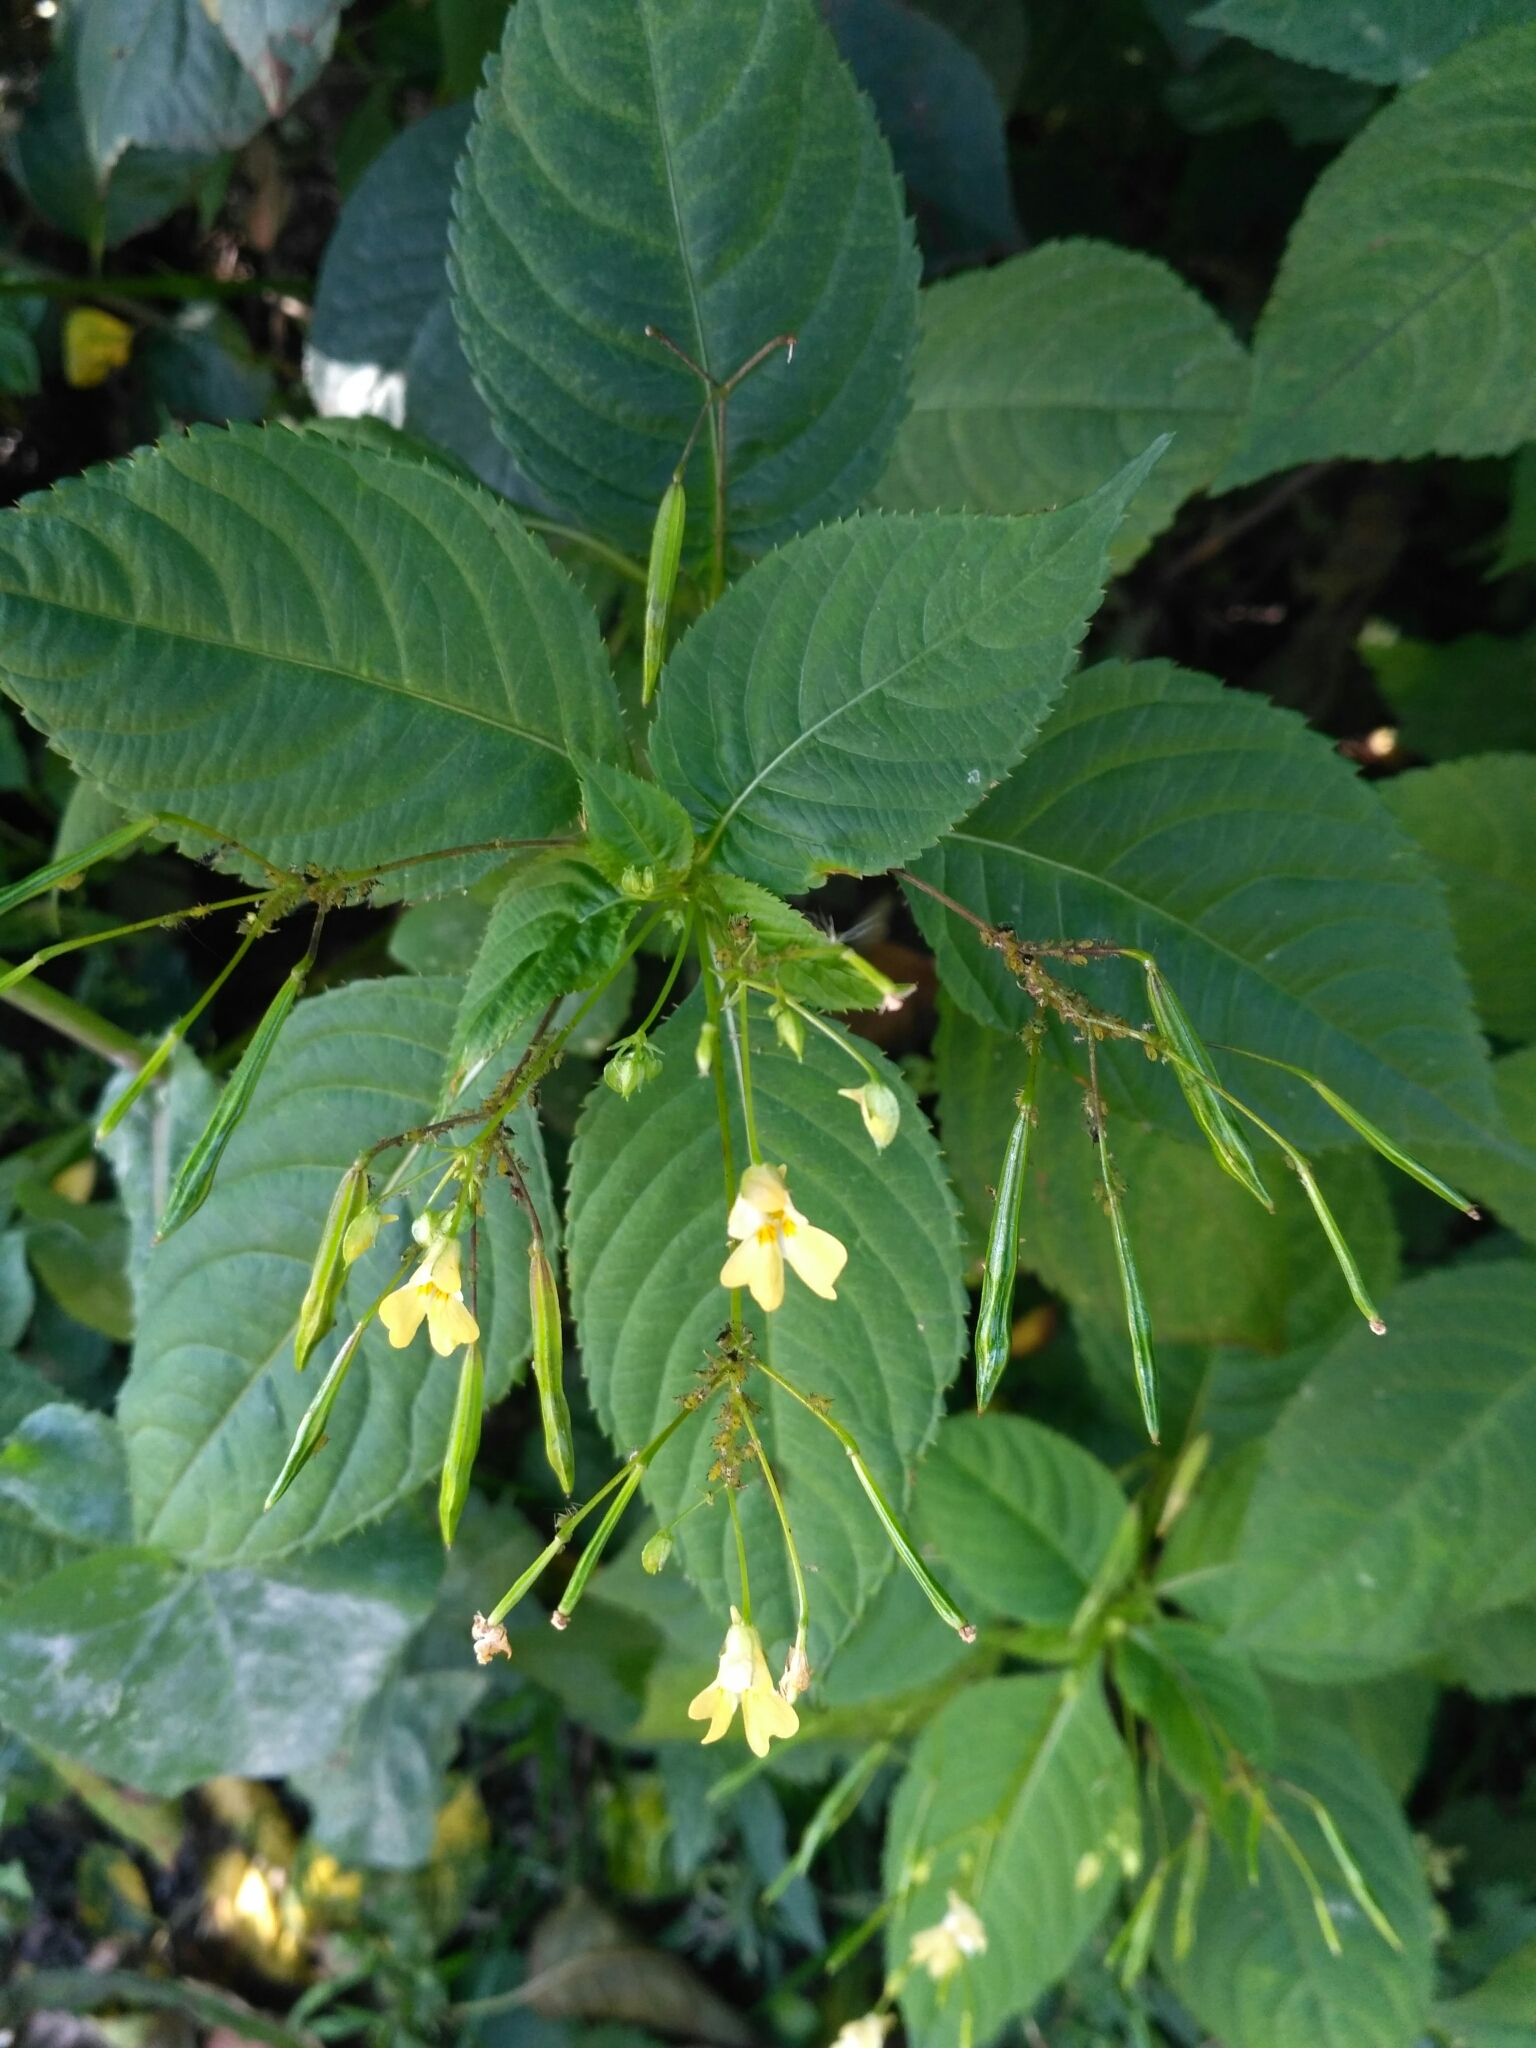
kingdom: Plantae
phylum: Tracheophyta
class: Magnoliopsida
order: Ericales
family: Balsaminaceae
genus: Impatiens
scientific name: Impatiens parviflora
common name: Small balsam
